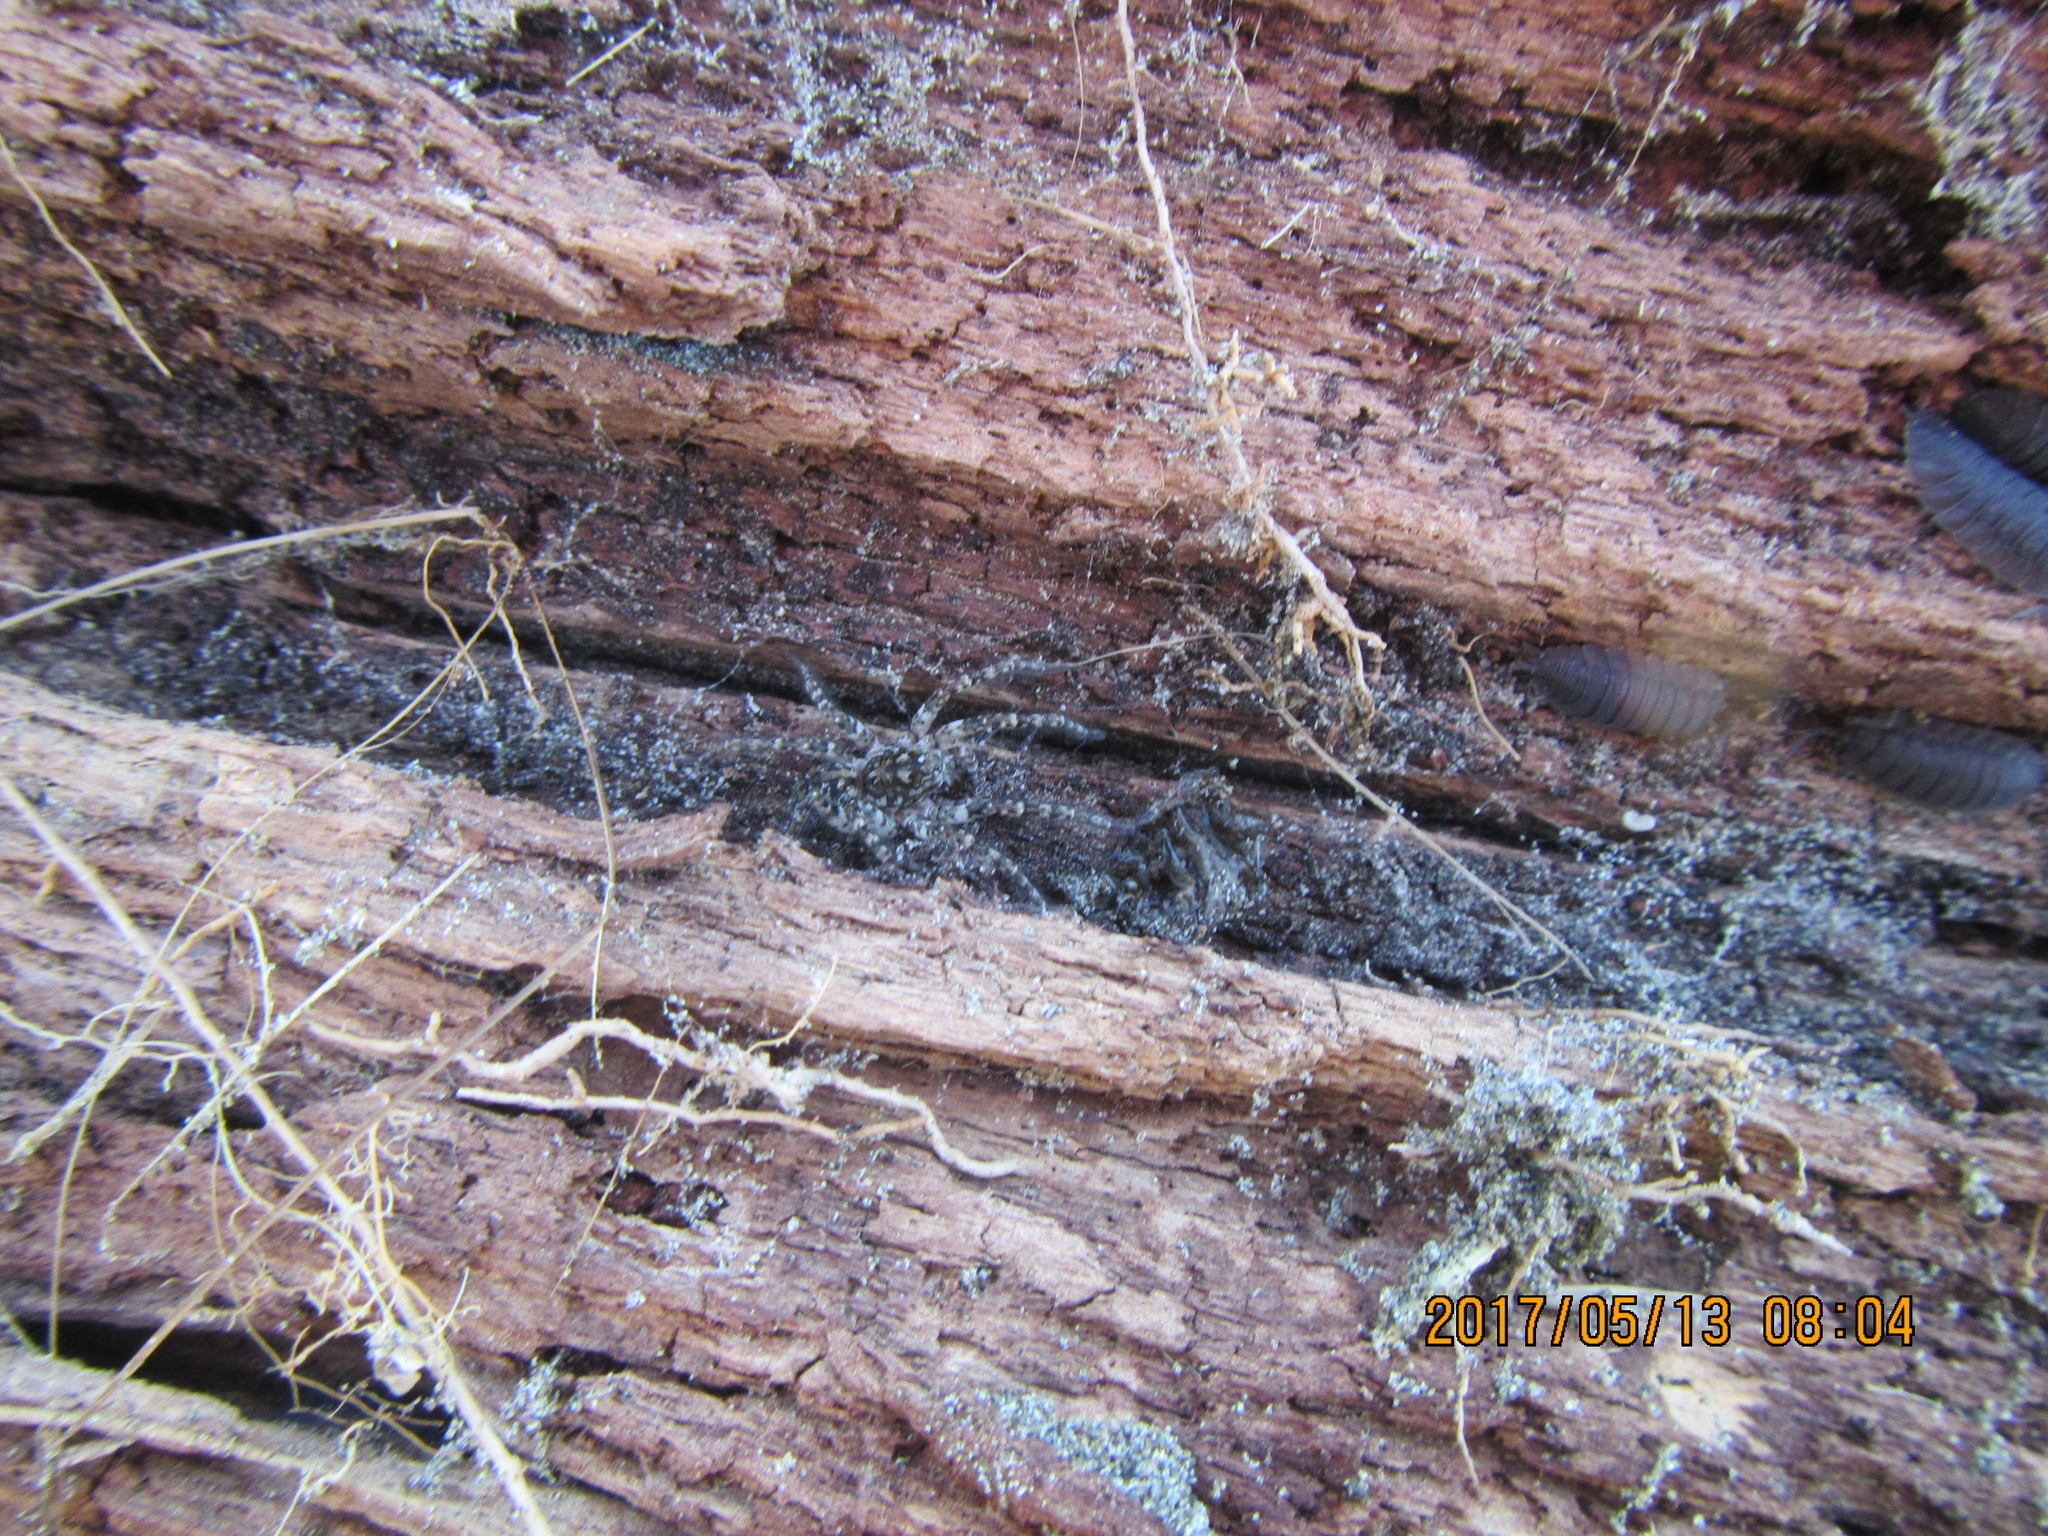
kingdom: Animalia
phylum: Arthropoda
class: Arachnida
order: Araneae
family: Lycosidae
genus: Anoteropsis
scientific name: Anoteropsis litoralis
